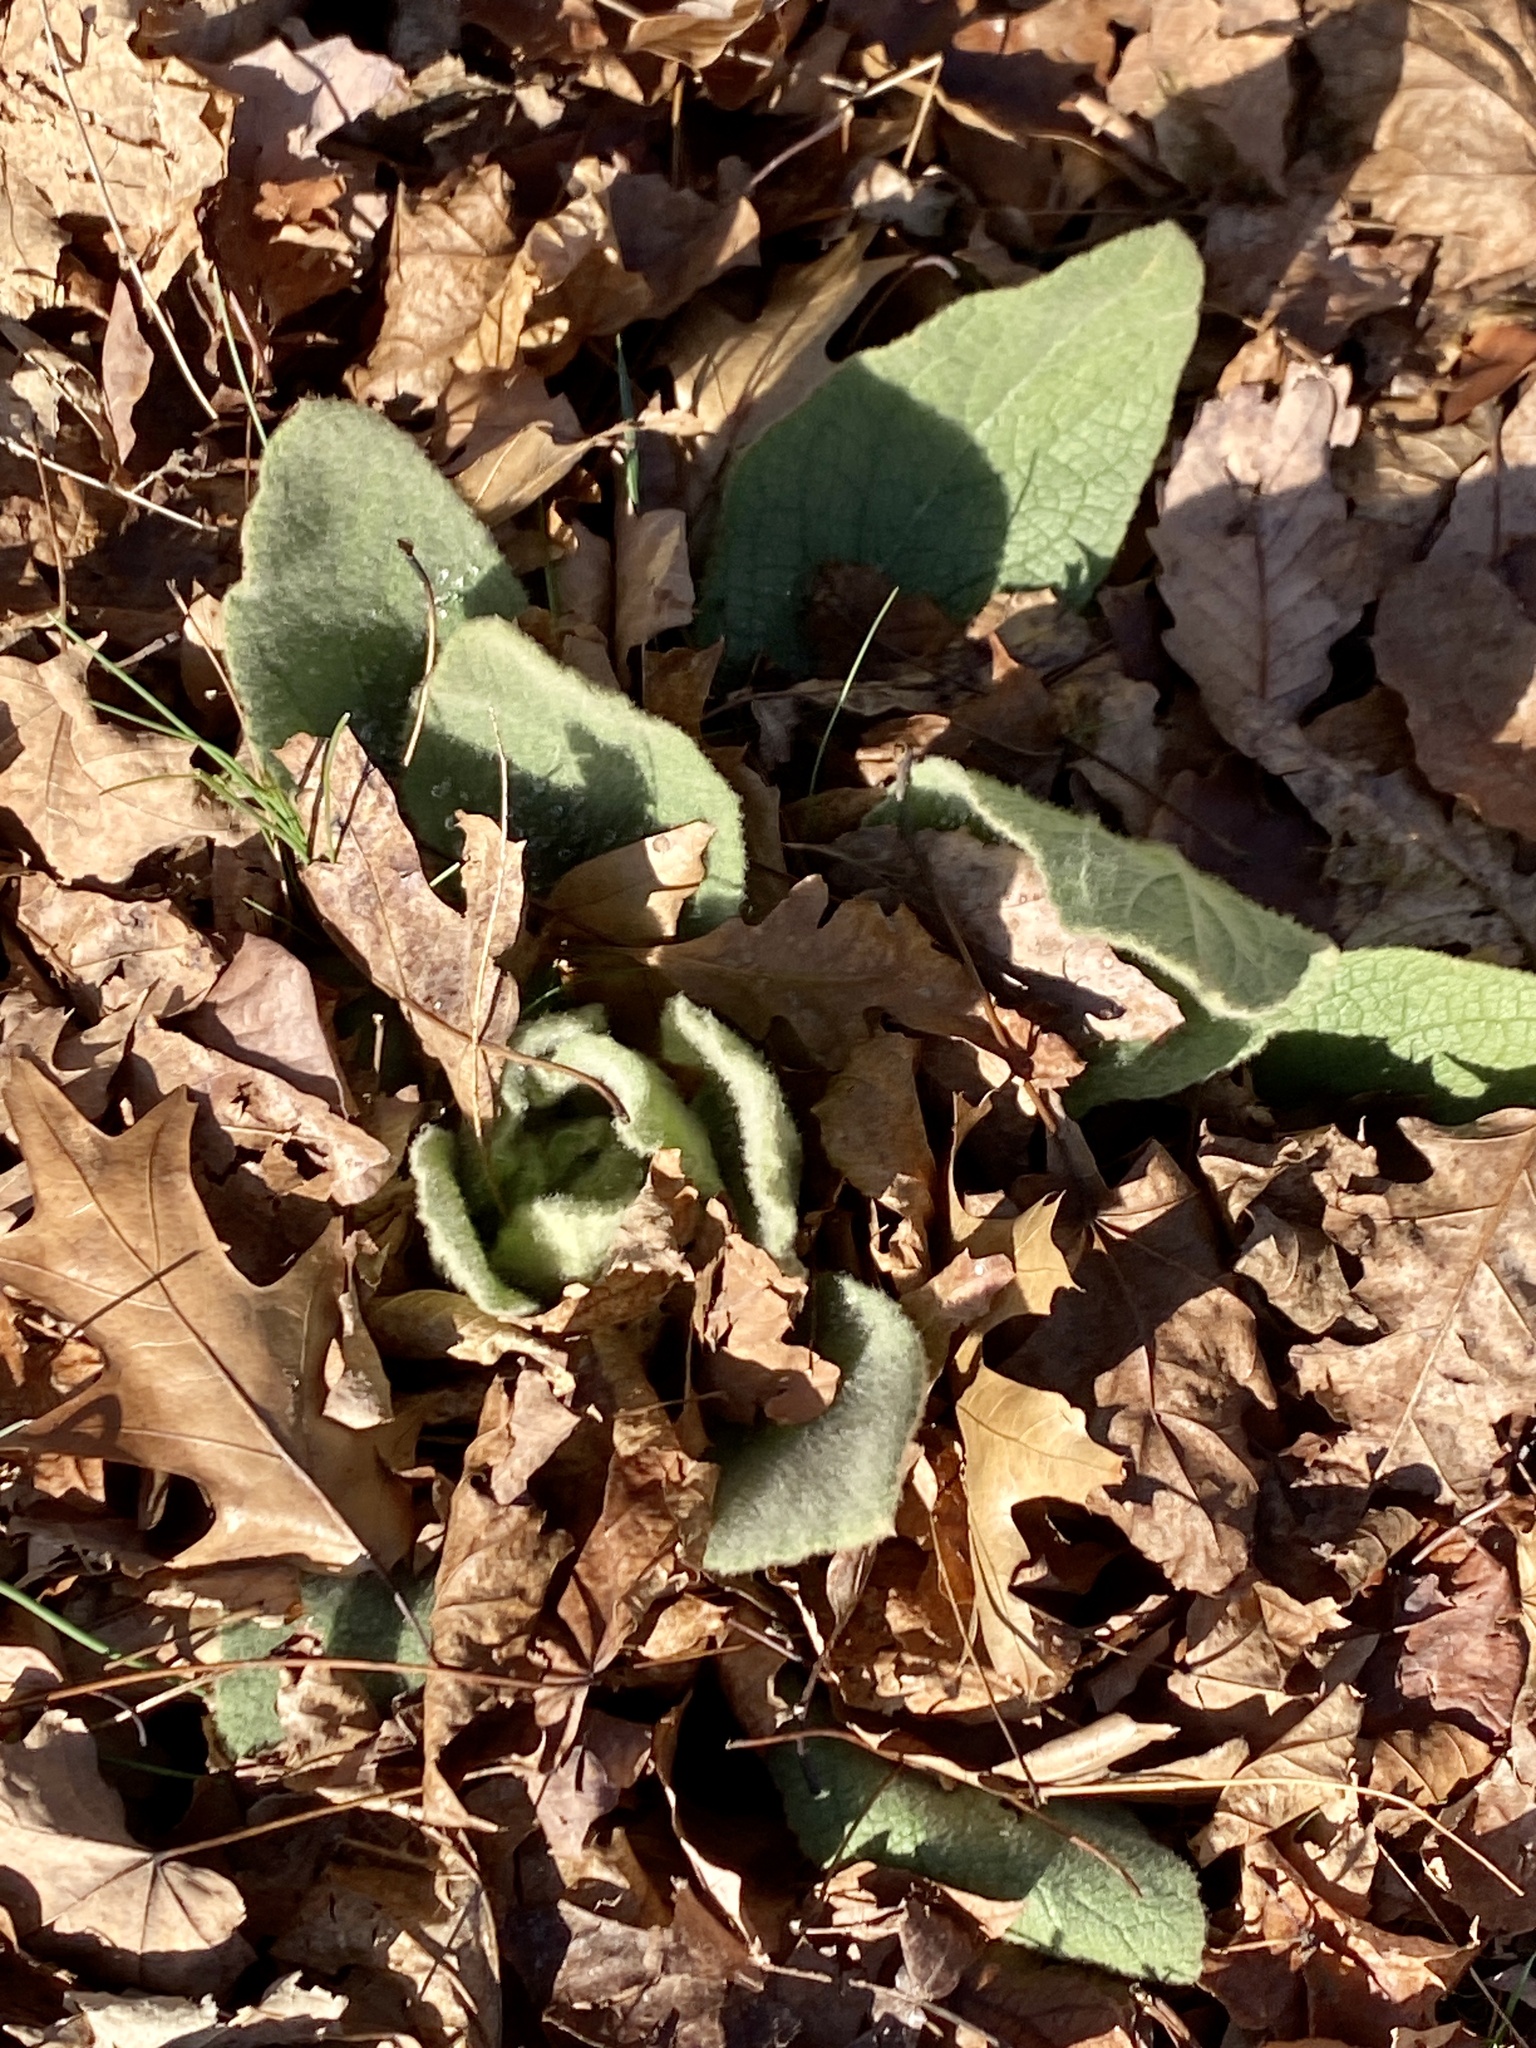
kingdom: Plantae
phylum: Tracheophyta
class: Magnoliopsida
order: Lamiales
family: Scrophulariaceae
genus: Verbascum
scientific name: Verbascum thapsus
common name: Common mullein
